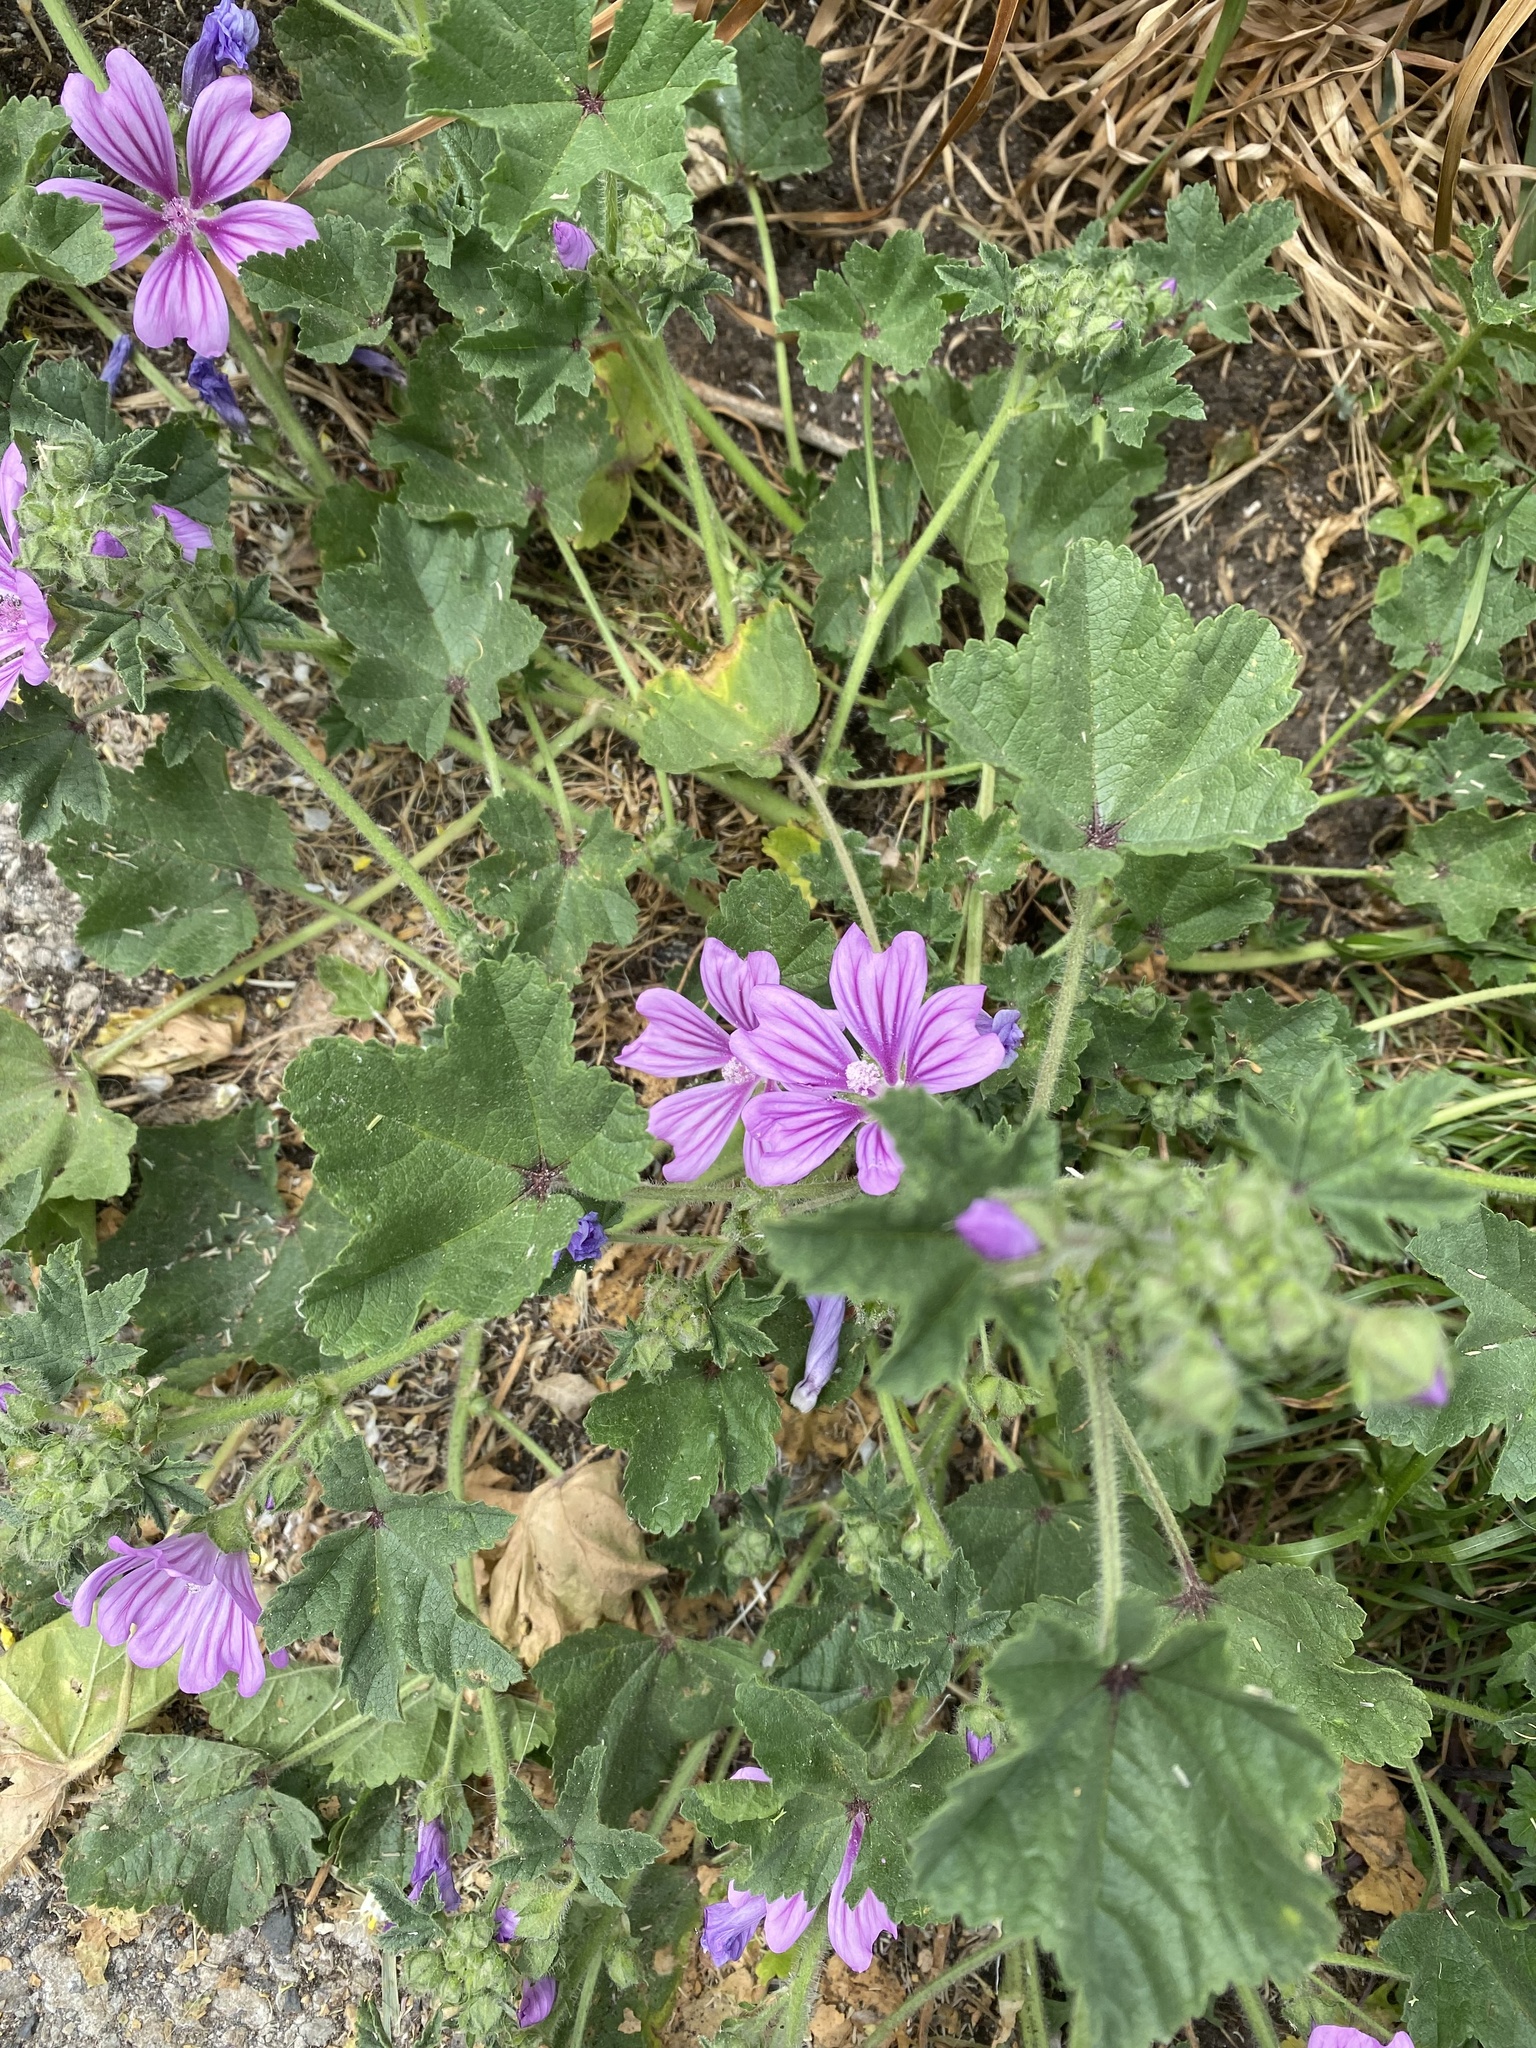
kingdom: Plantae
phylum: Tracheophyta
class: Magnoliopsida
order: Malvales
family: Malvaceae
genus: Malva
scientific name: Malva sylvestris
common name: Common mallow
